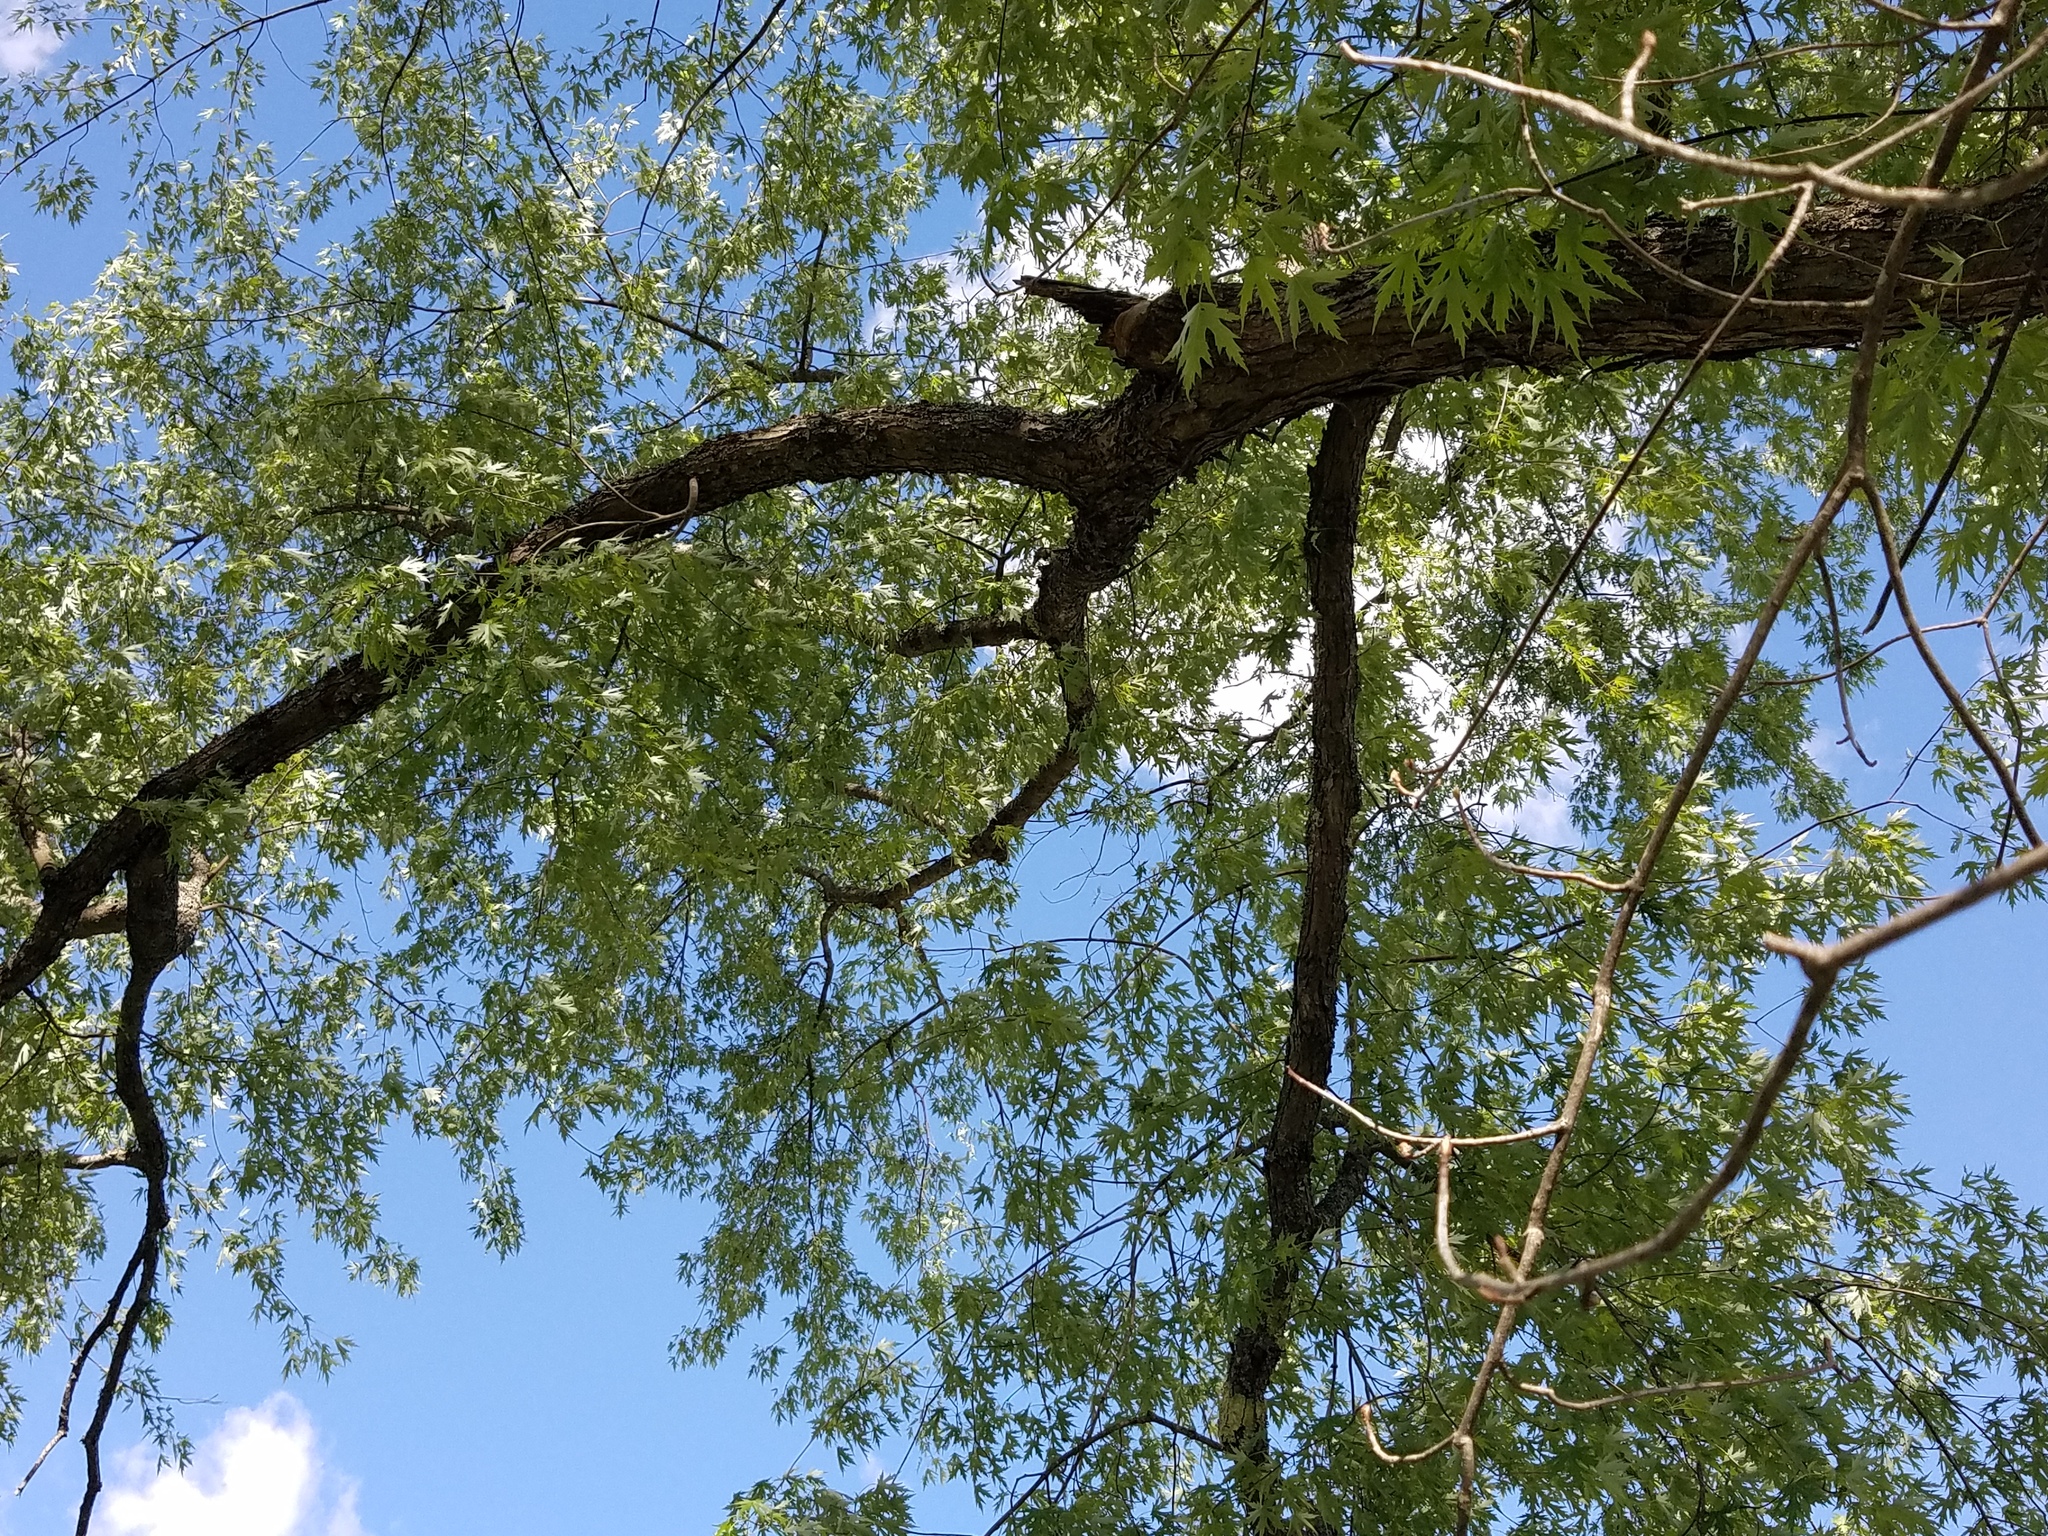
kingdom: Plantae
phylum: Tracheophyta
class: Magnoliopsida
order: Sapindales
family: Sapindaceae
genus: Acer
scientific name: Acer saccharinum
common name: Silver maple
